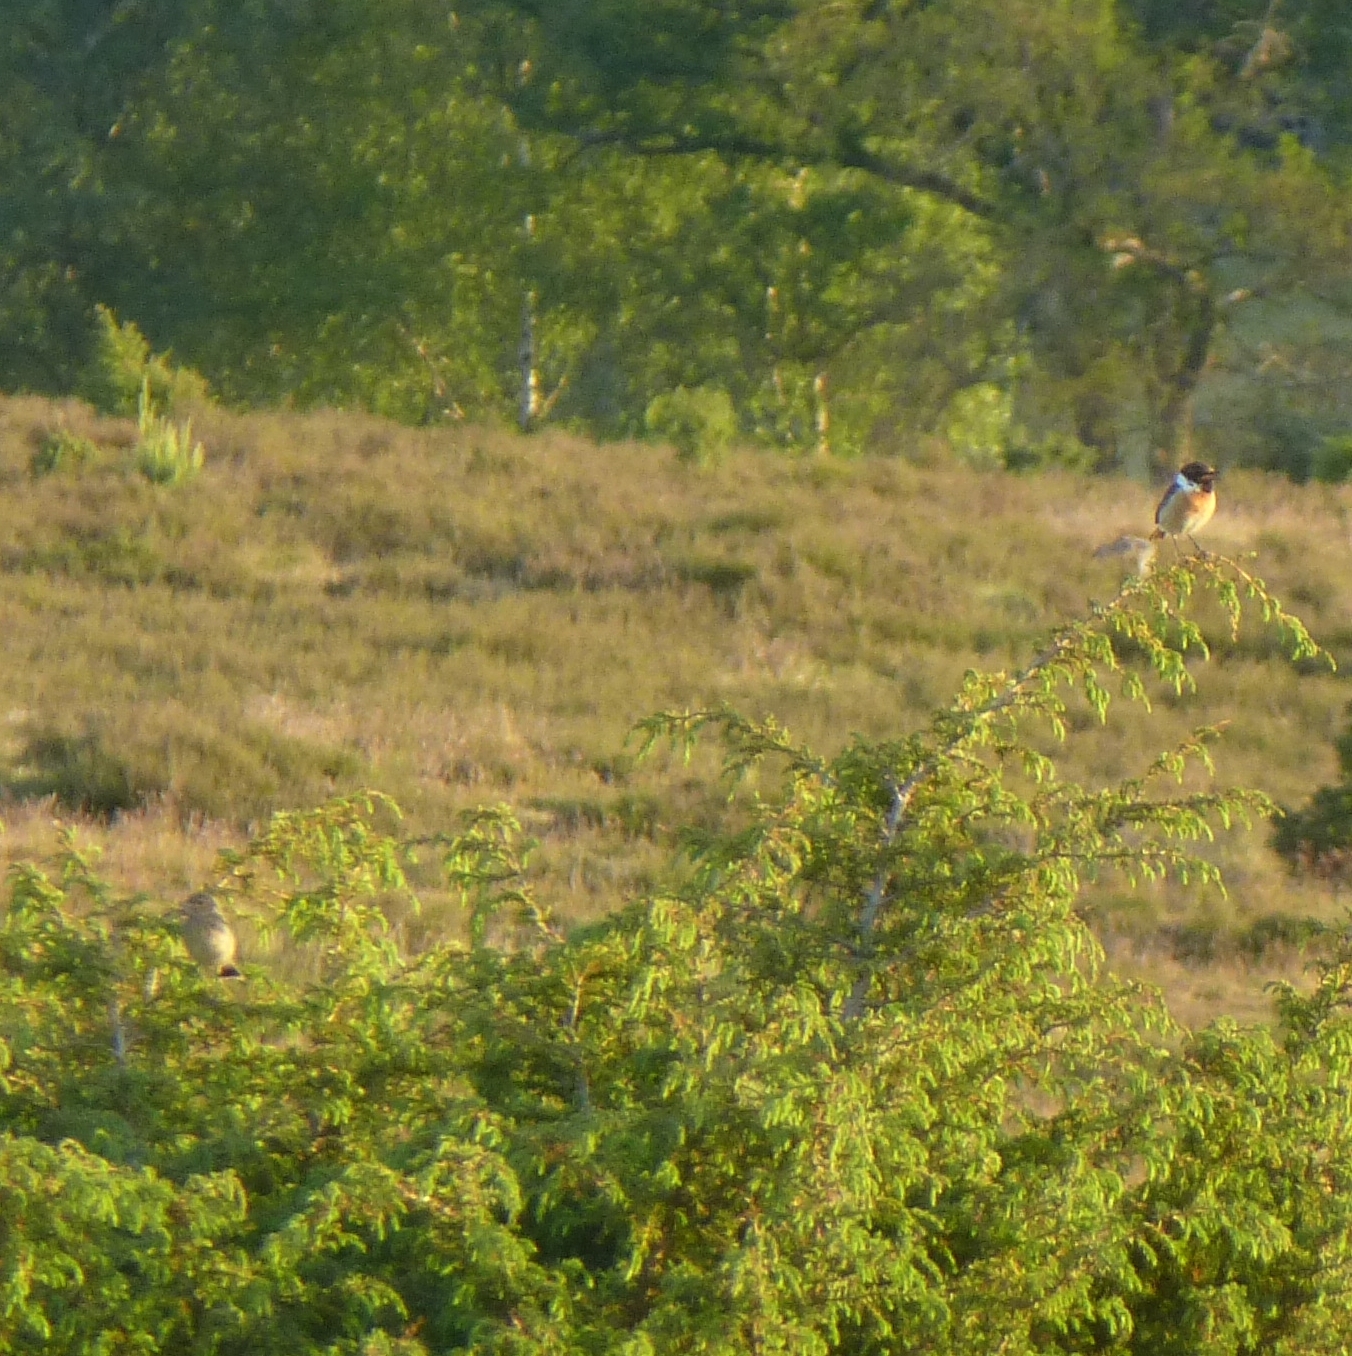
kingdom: Animalia
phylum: Chordata
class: Aves
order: Passeriformes
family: Muscicapidae
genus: Saxicola
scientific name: Saxicola rubicola
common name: European stonechat
